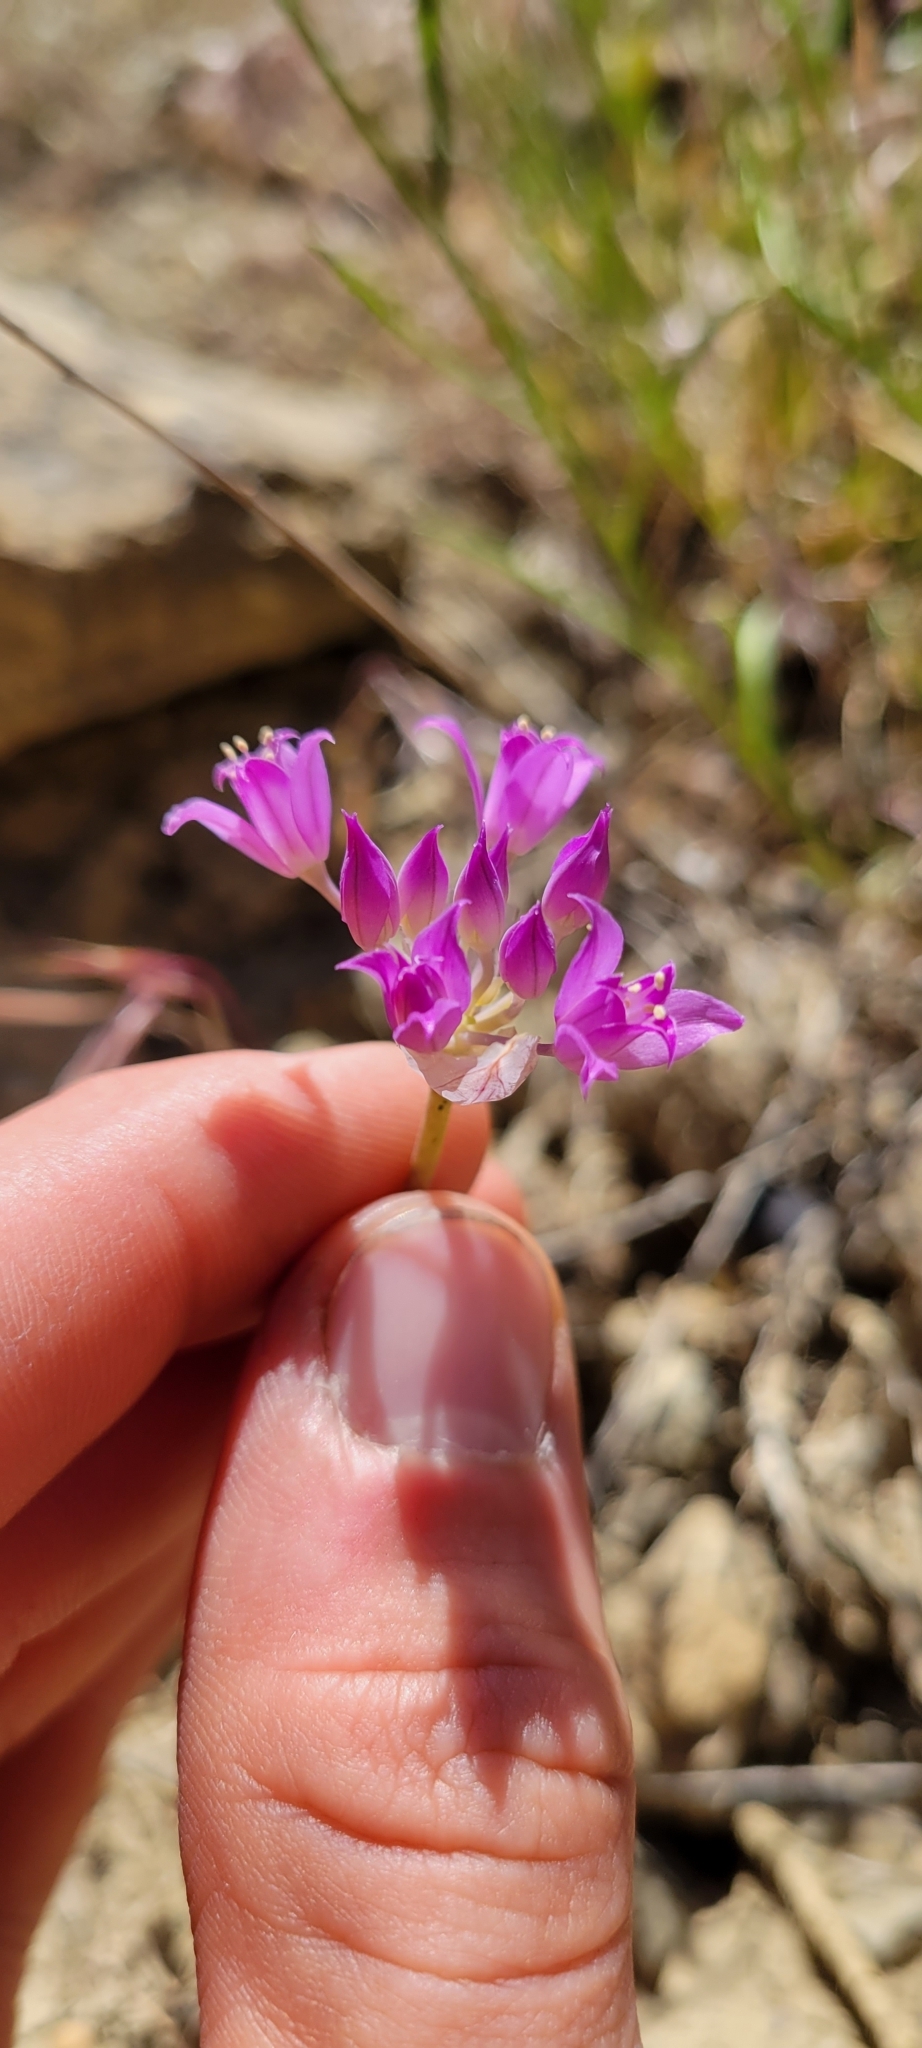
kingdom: Plantae
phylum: Tracheophyta
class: Liliopsida
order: Asparagales
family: Amaryllidaceae
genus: Allium
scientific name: Allium acuminatum
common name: Hooker's onion
